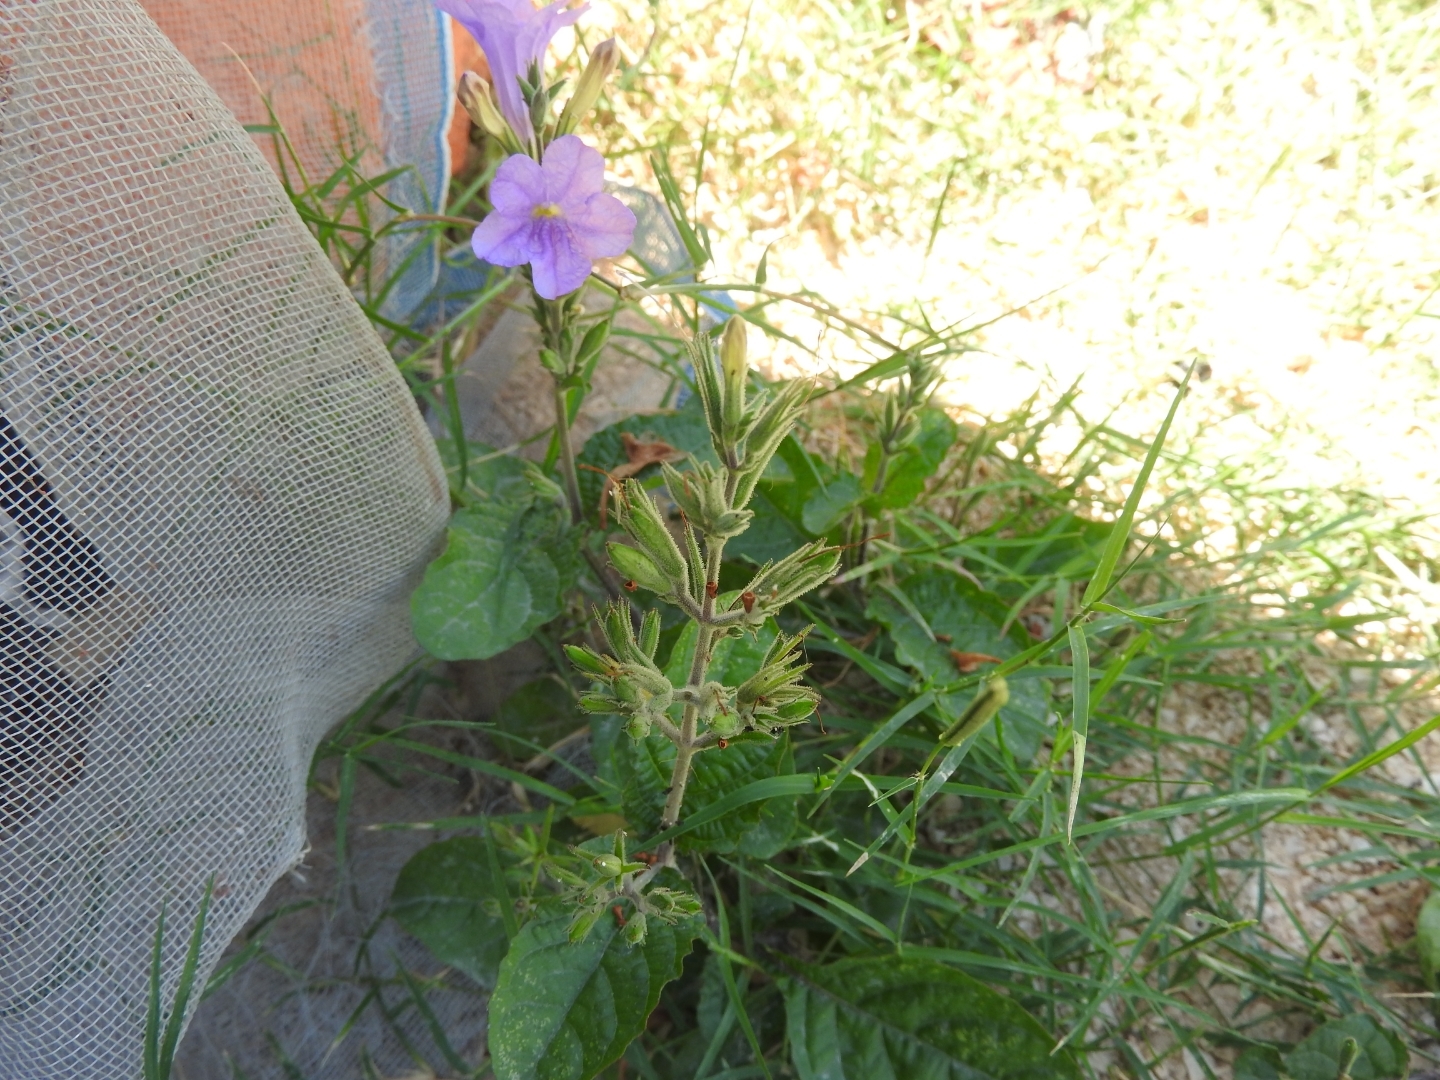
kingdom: Plantae
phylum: Tracheophyta
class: Magnoliopsida
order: Lamiales
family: Acanthaceae
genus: Ruellia
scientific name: Ruellia ciliatiflora
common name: Hairyflower wild petunia
